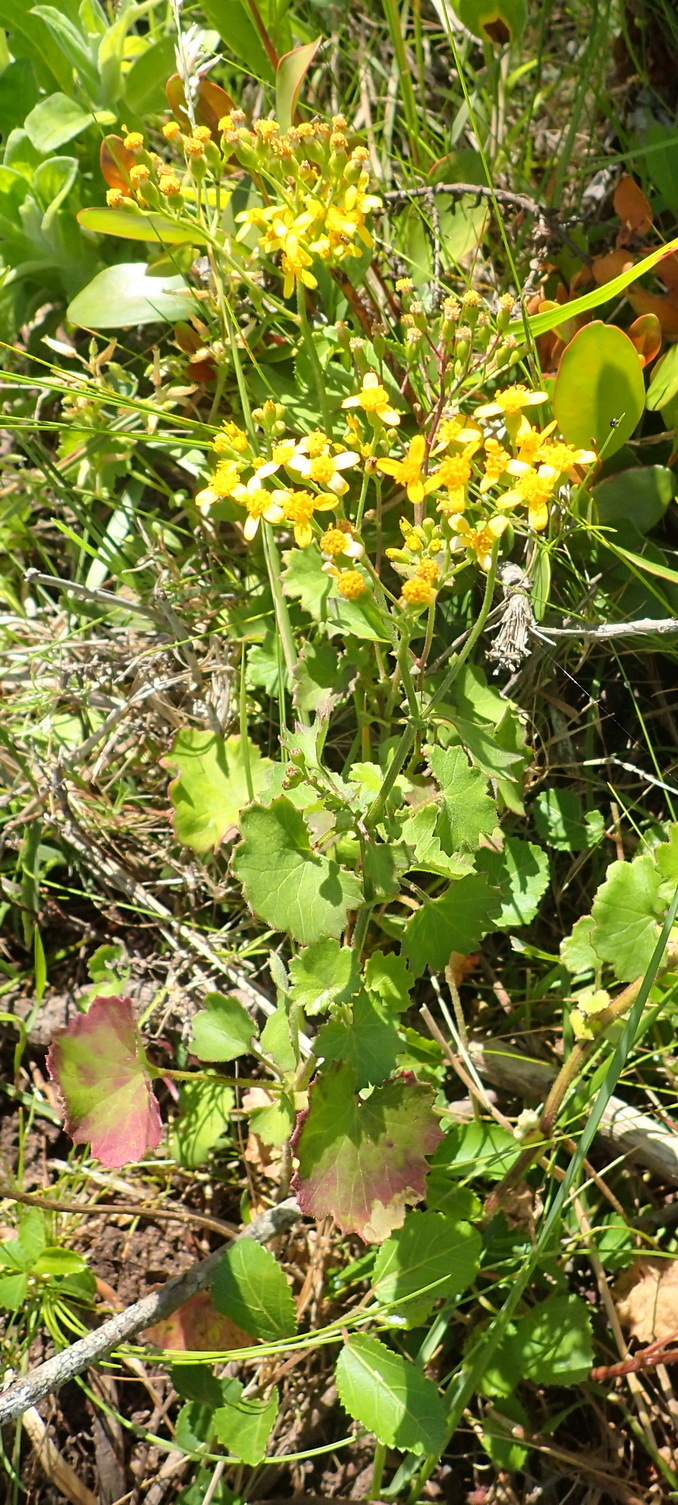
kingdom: Plantae
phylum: Tracheophyta
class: Magnoliopsida
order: Asterales
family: Asteraceae
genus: Cineraria
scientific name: Cineraria geifolia
